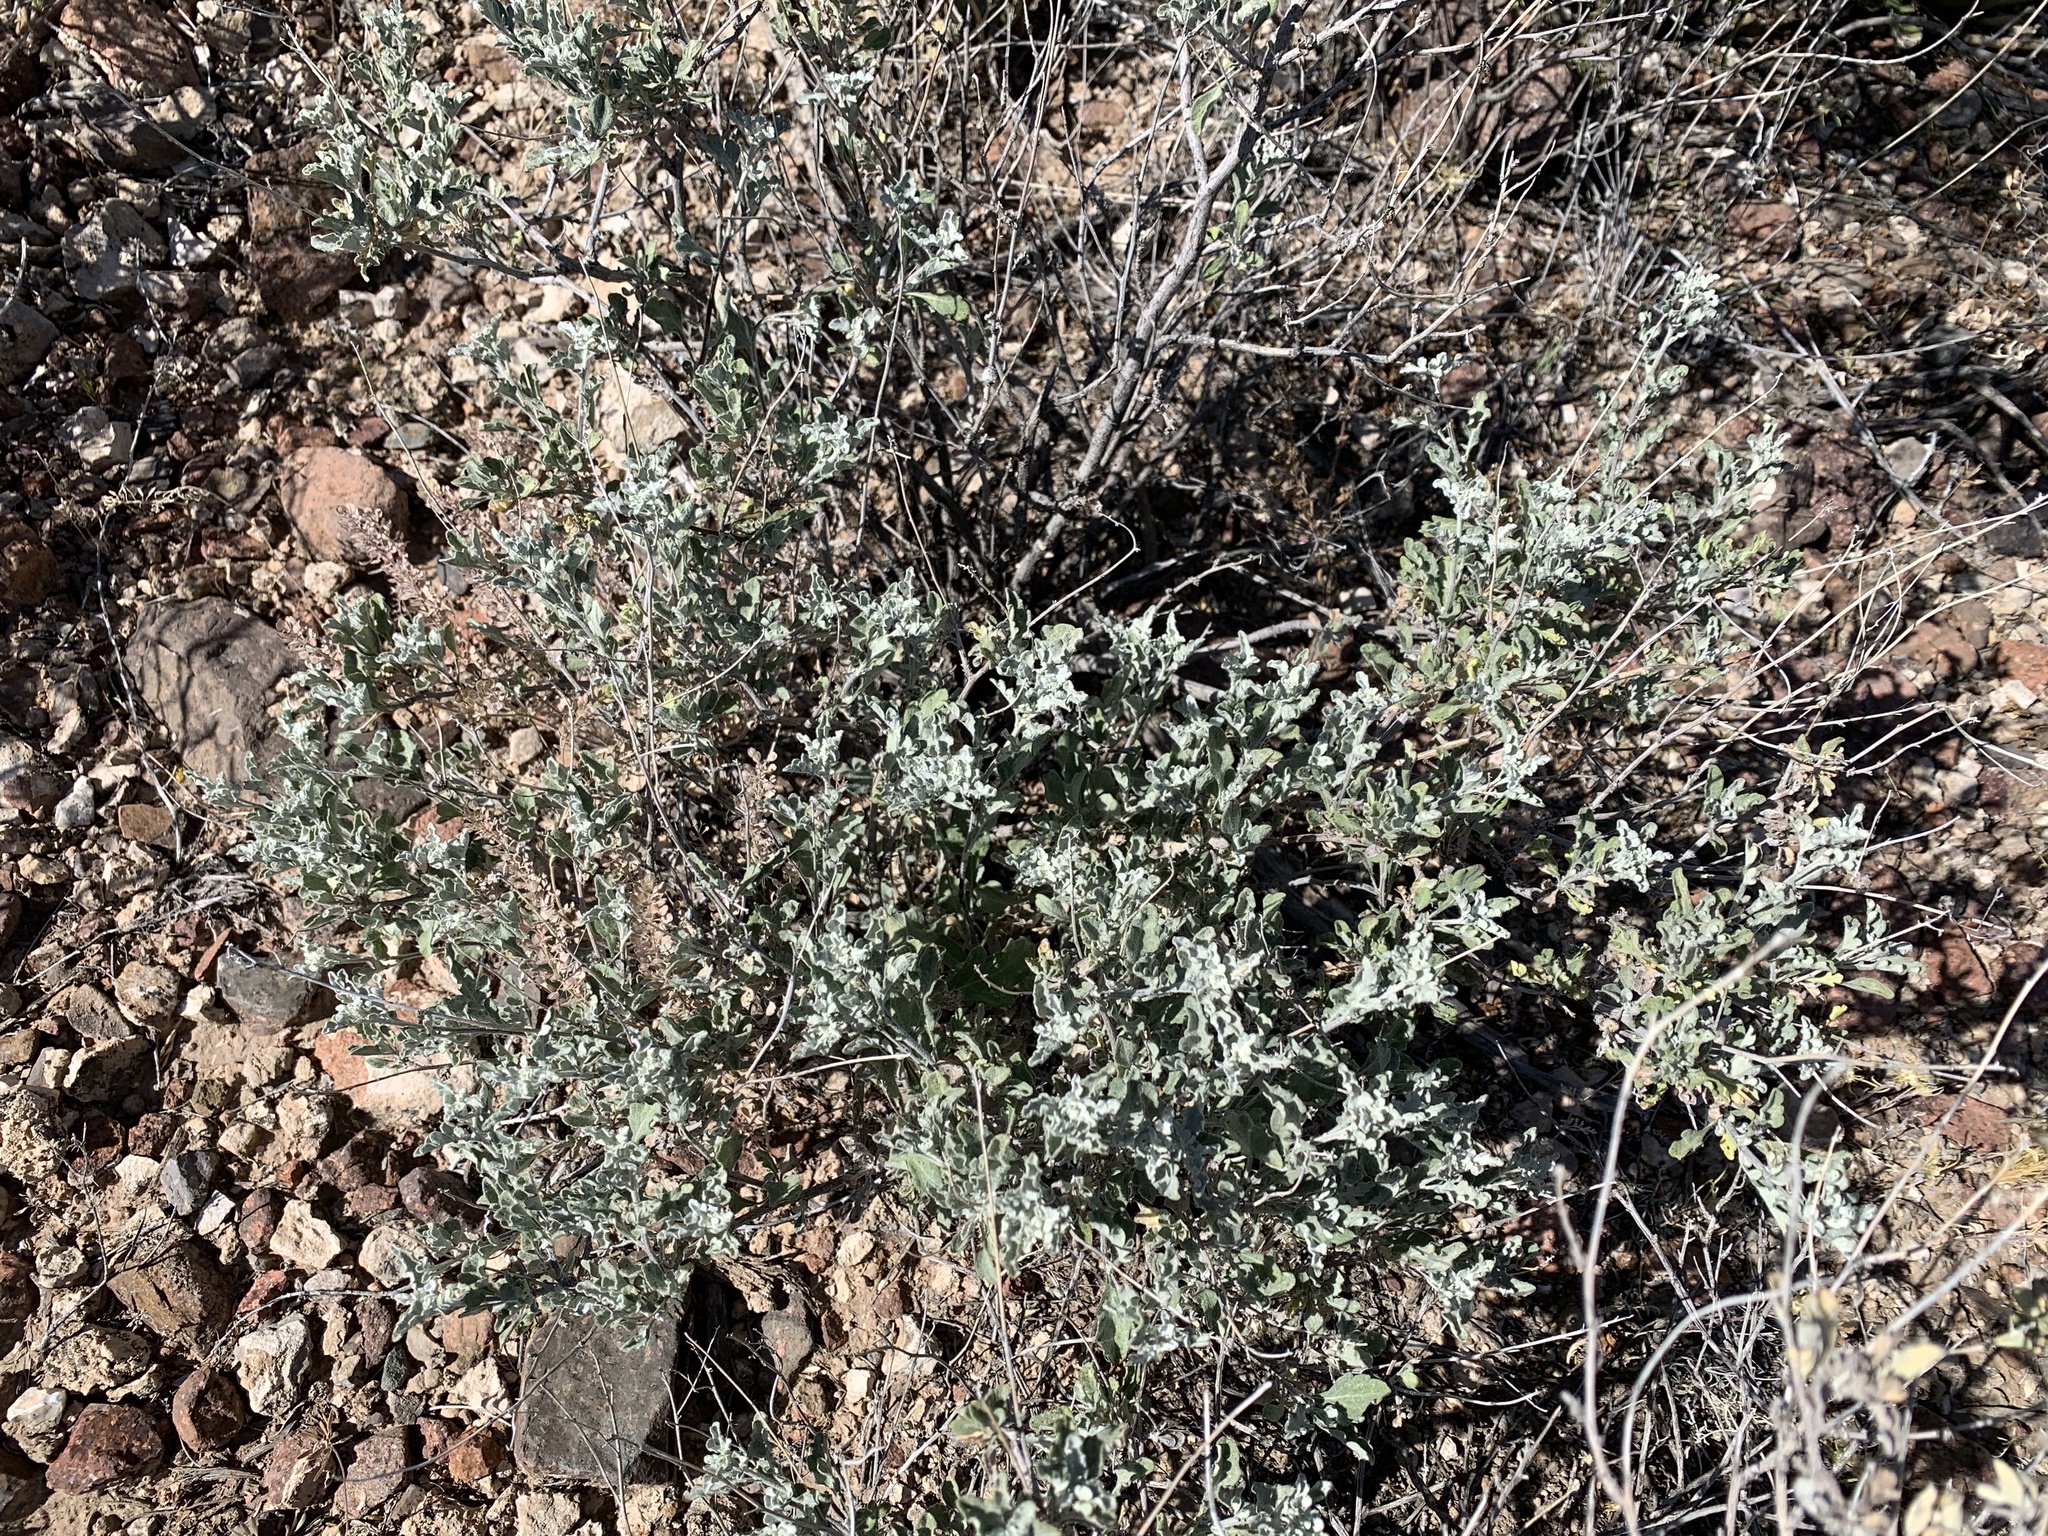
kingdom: Plantae
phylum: Tracheophyta
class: Magnoliopsida
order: Asterales
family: Asteraceae
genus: Parthenium
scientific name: Parthenium incanum
